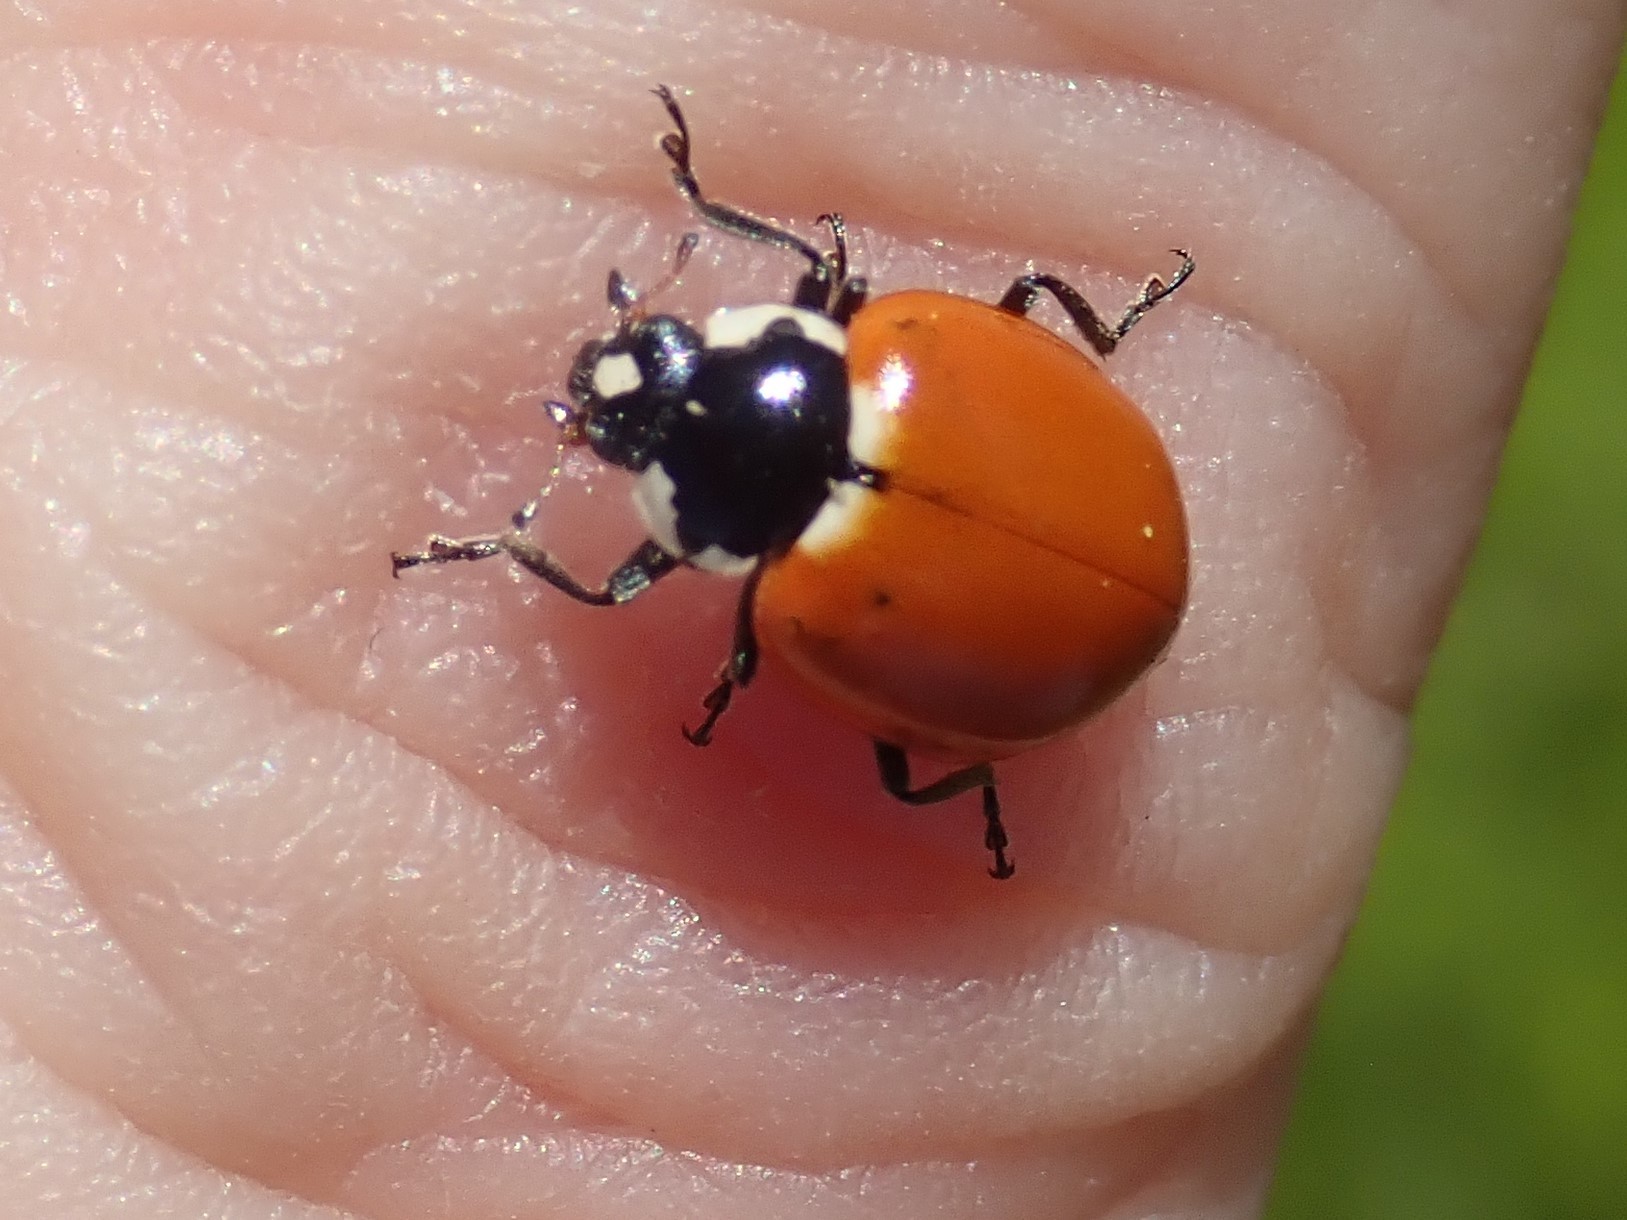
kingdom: Animalia
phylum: Arthropoda
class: Insecta
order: Coleoptera
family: Coccinellidae
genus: Hippodamia
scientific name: Hippodamia quinquesignata
